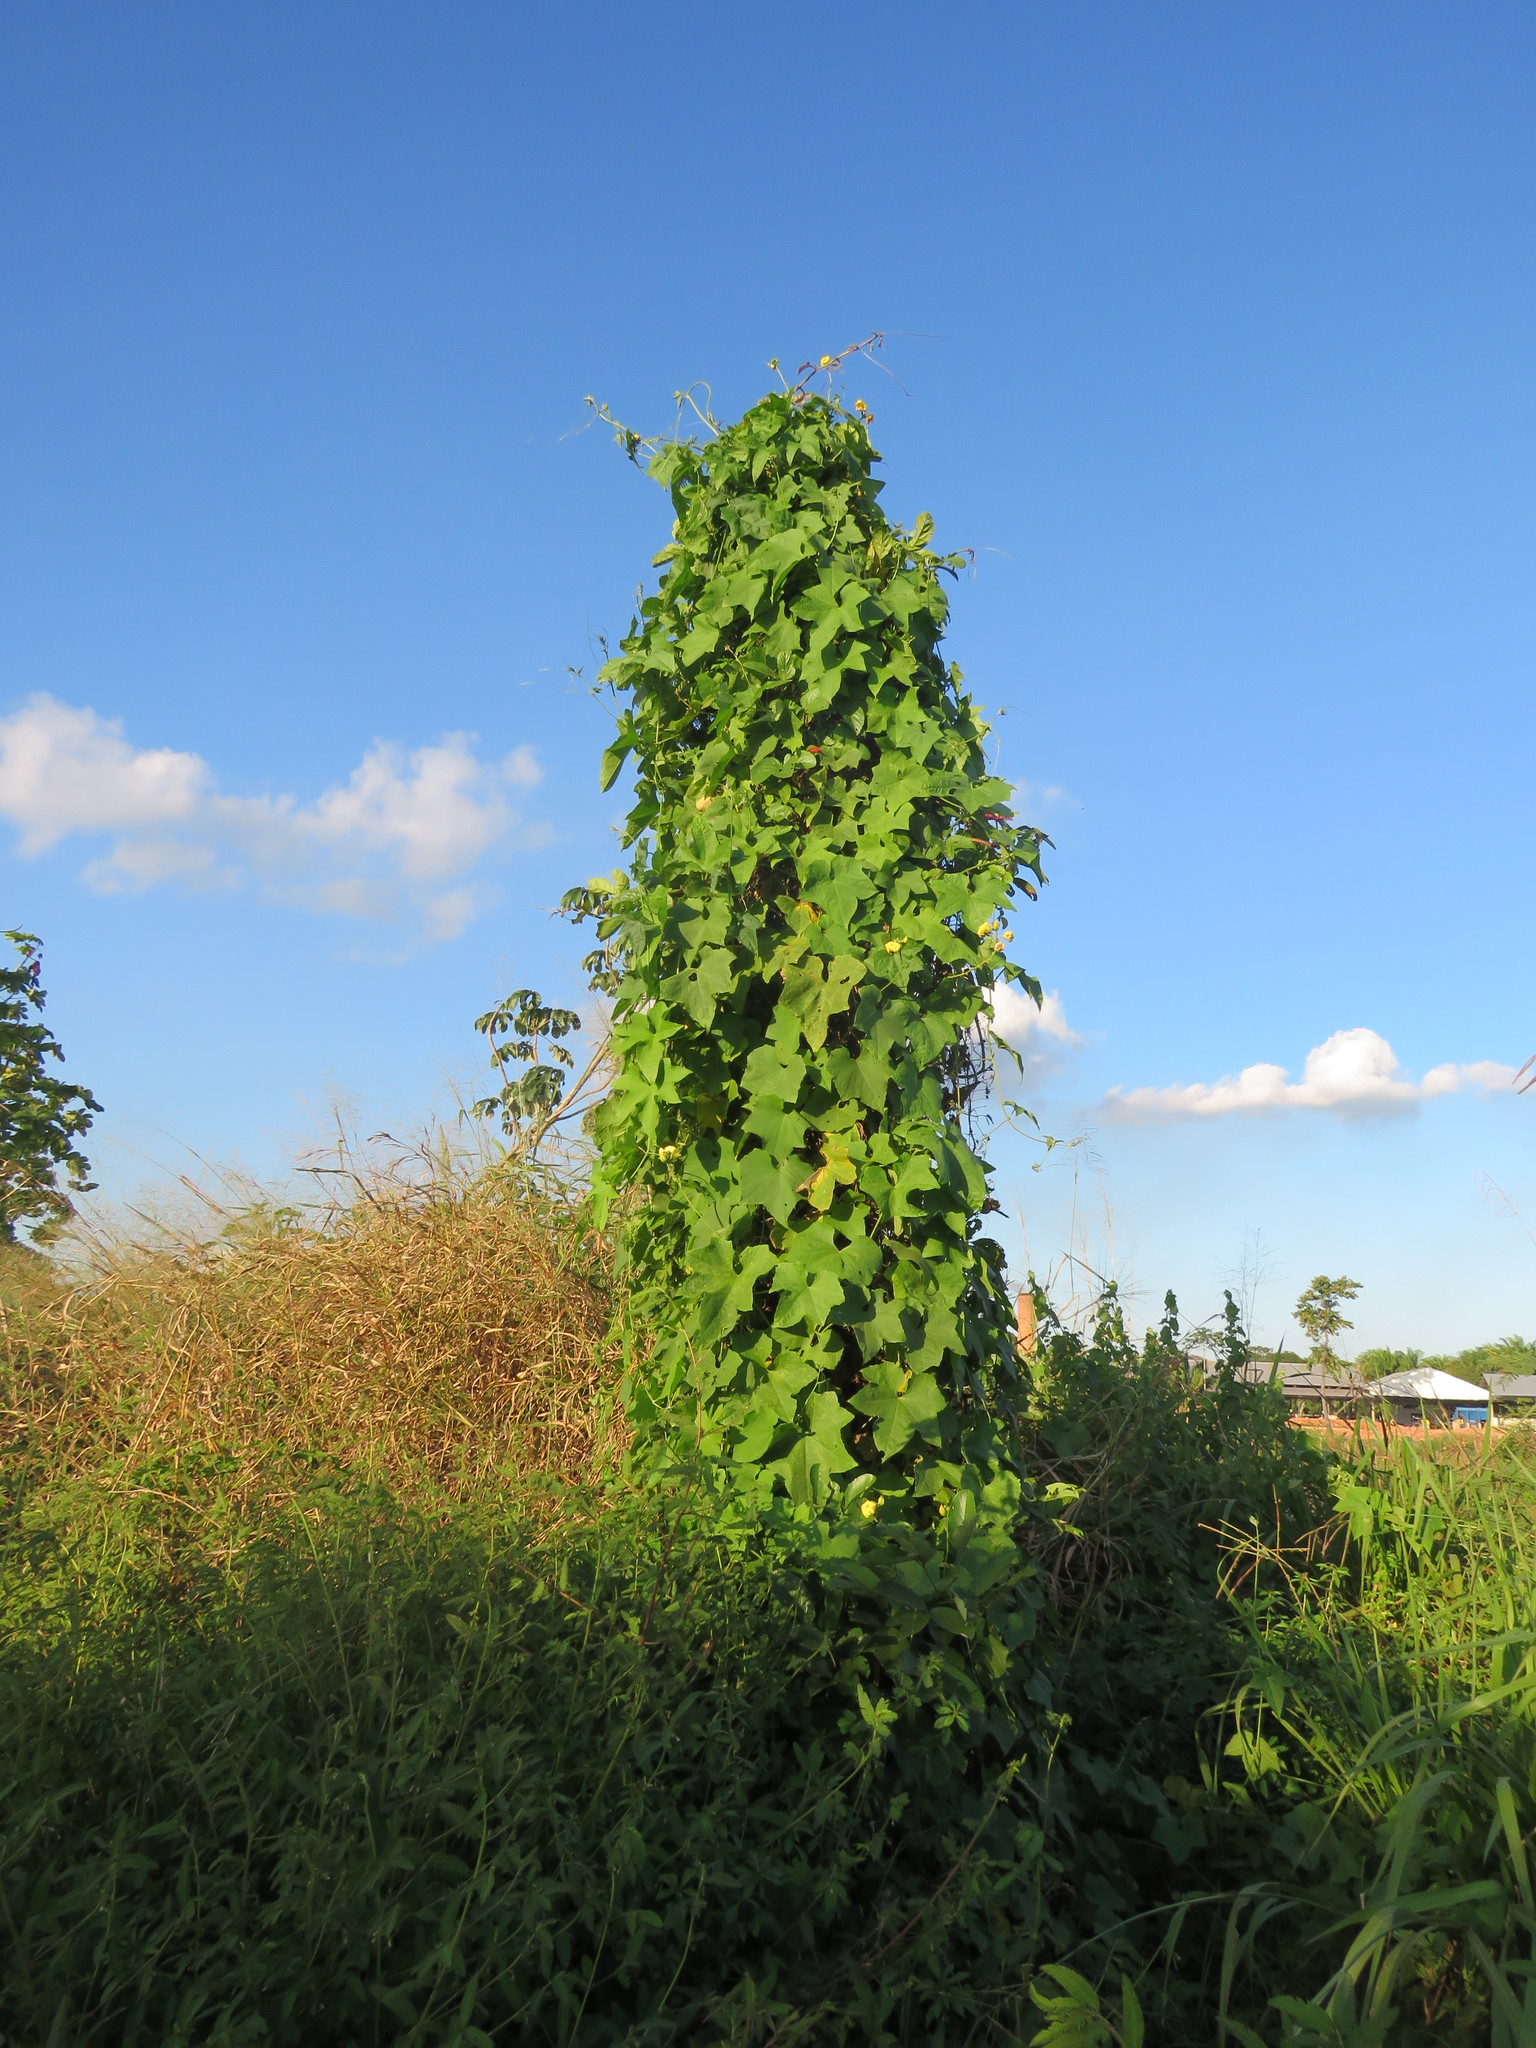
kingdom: Plantae
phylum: Tracheophyta
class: Magnoliopsida
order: Cucurbitales
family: Cucurbitaceae
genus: Luffa
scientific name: Luffa aegyptiaca
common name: Sponge gourd
